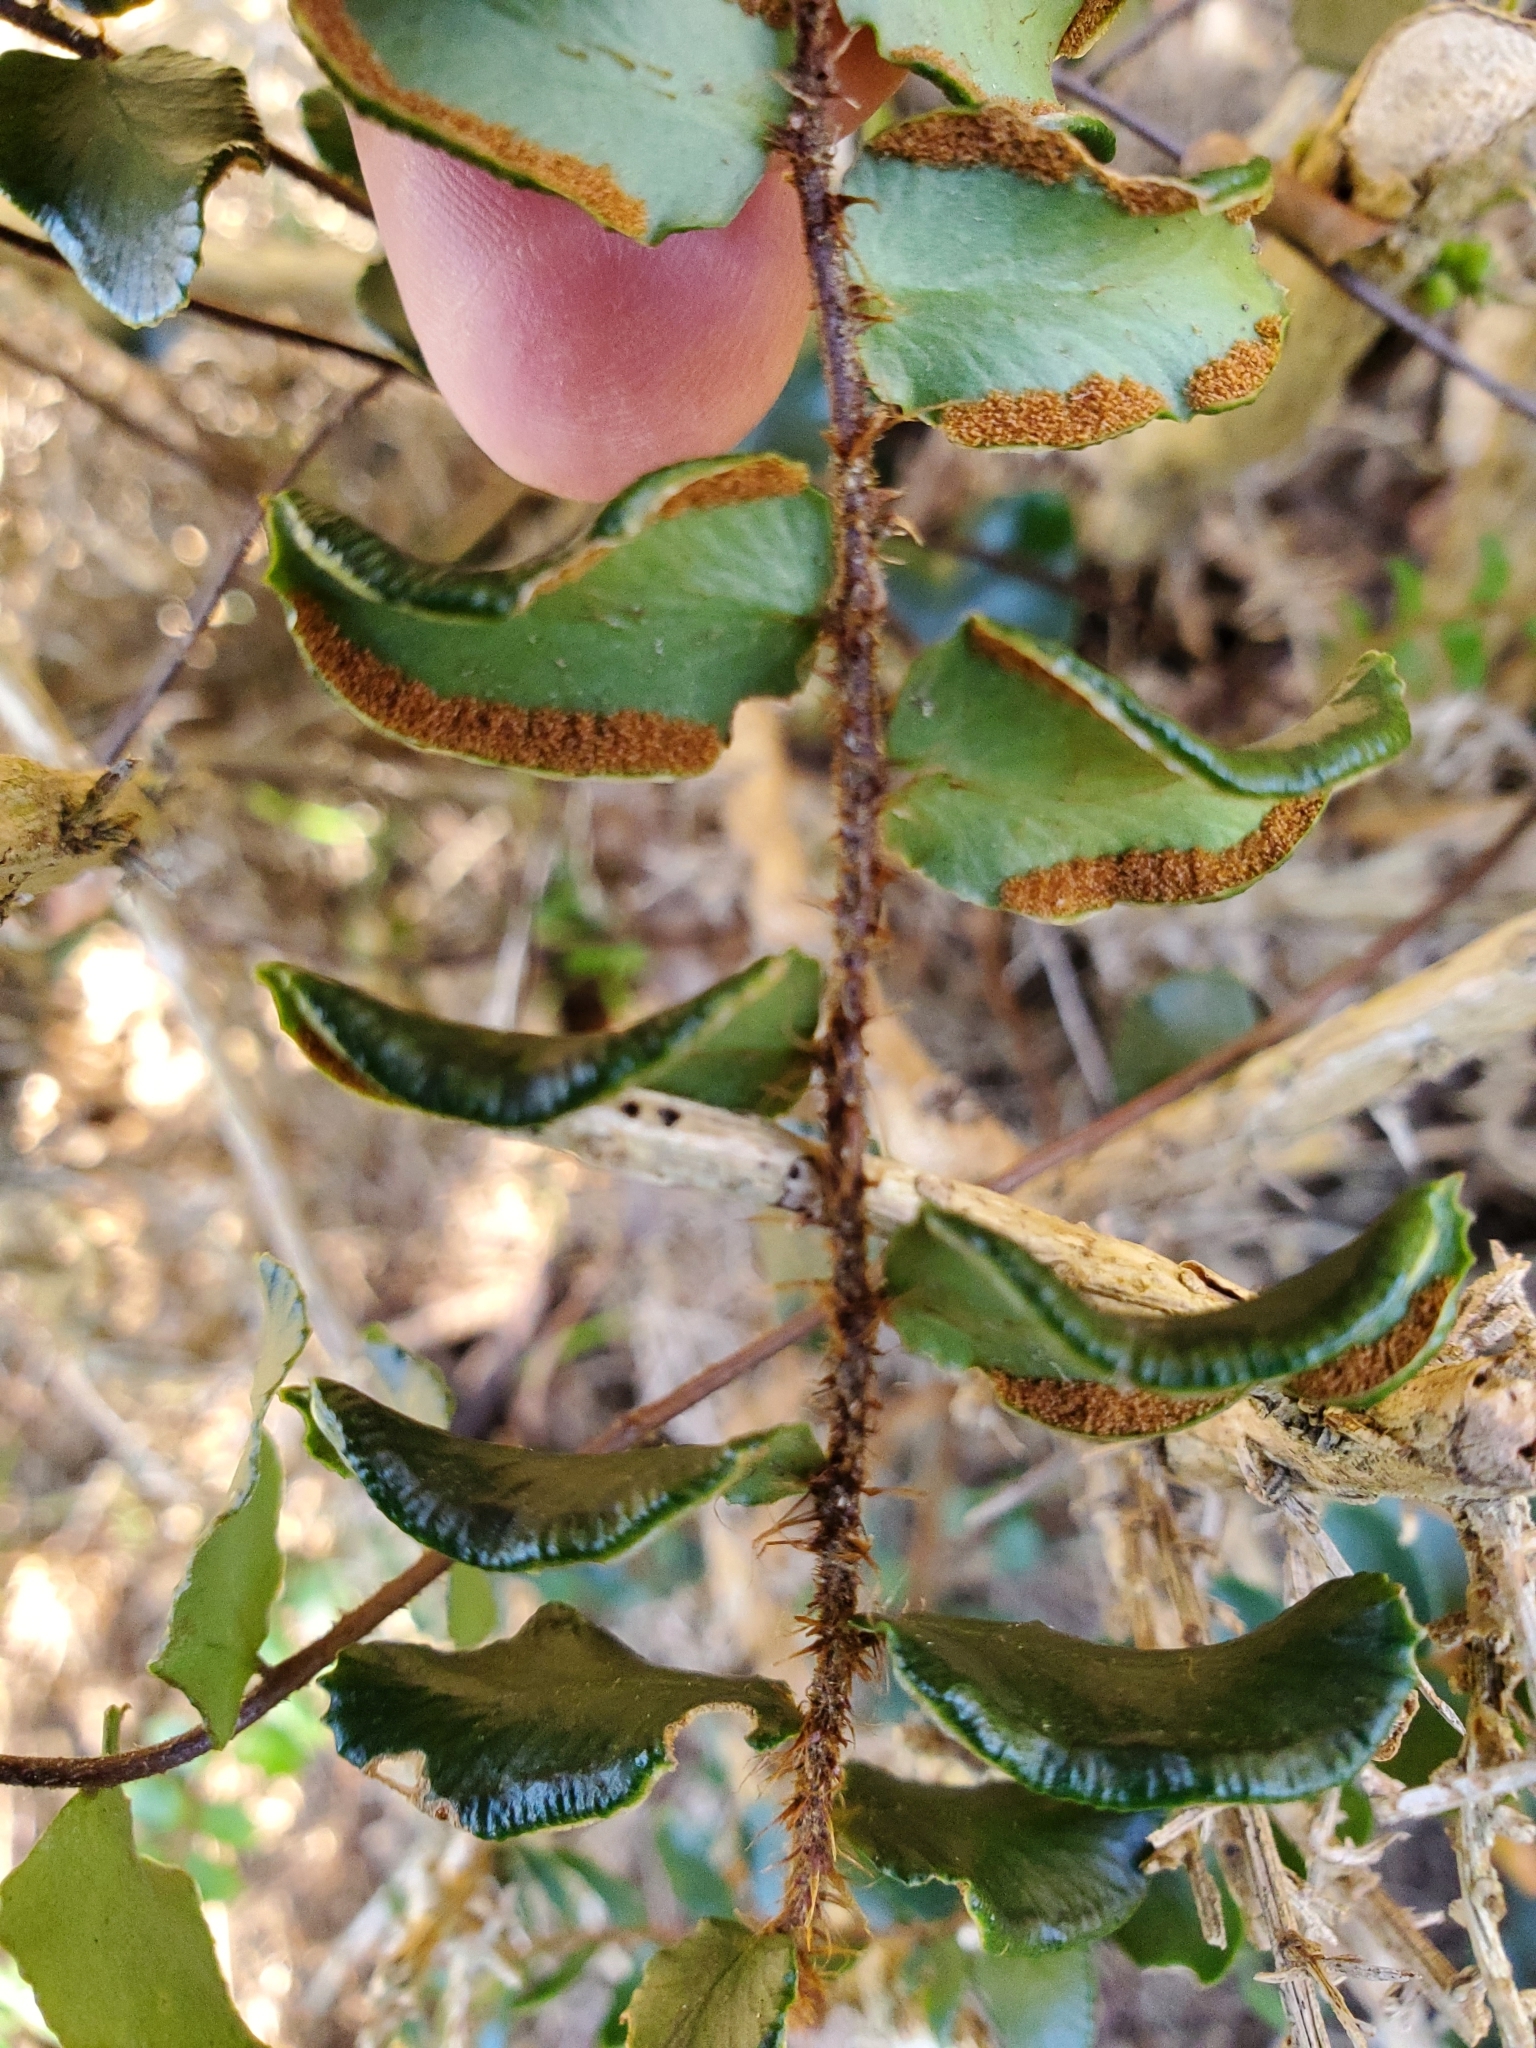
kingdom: Plantae
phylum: Tracheophyta
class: Polypodiopsida
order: Polypodiales
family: Pteridaceae
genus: Pellaea
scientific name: Pellaea rotundifolia
